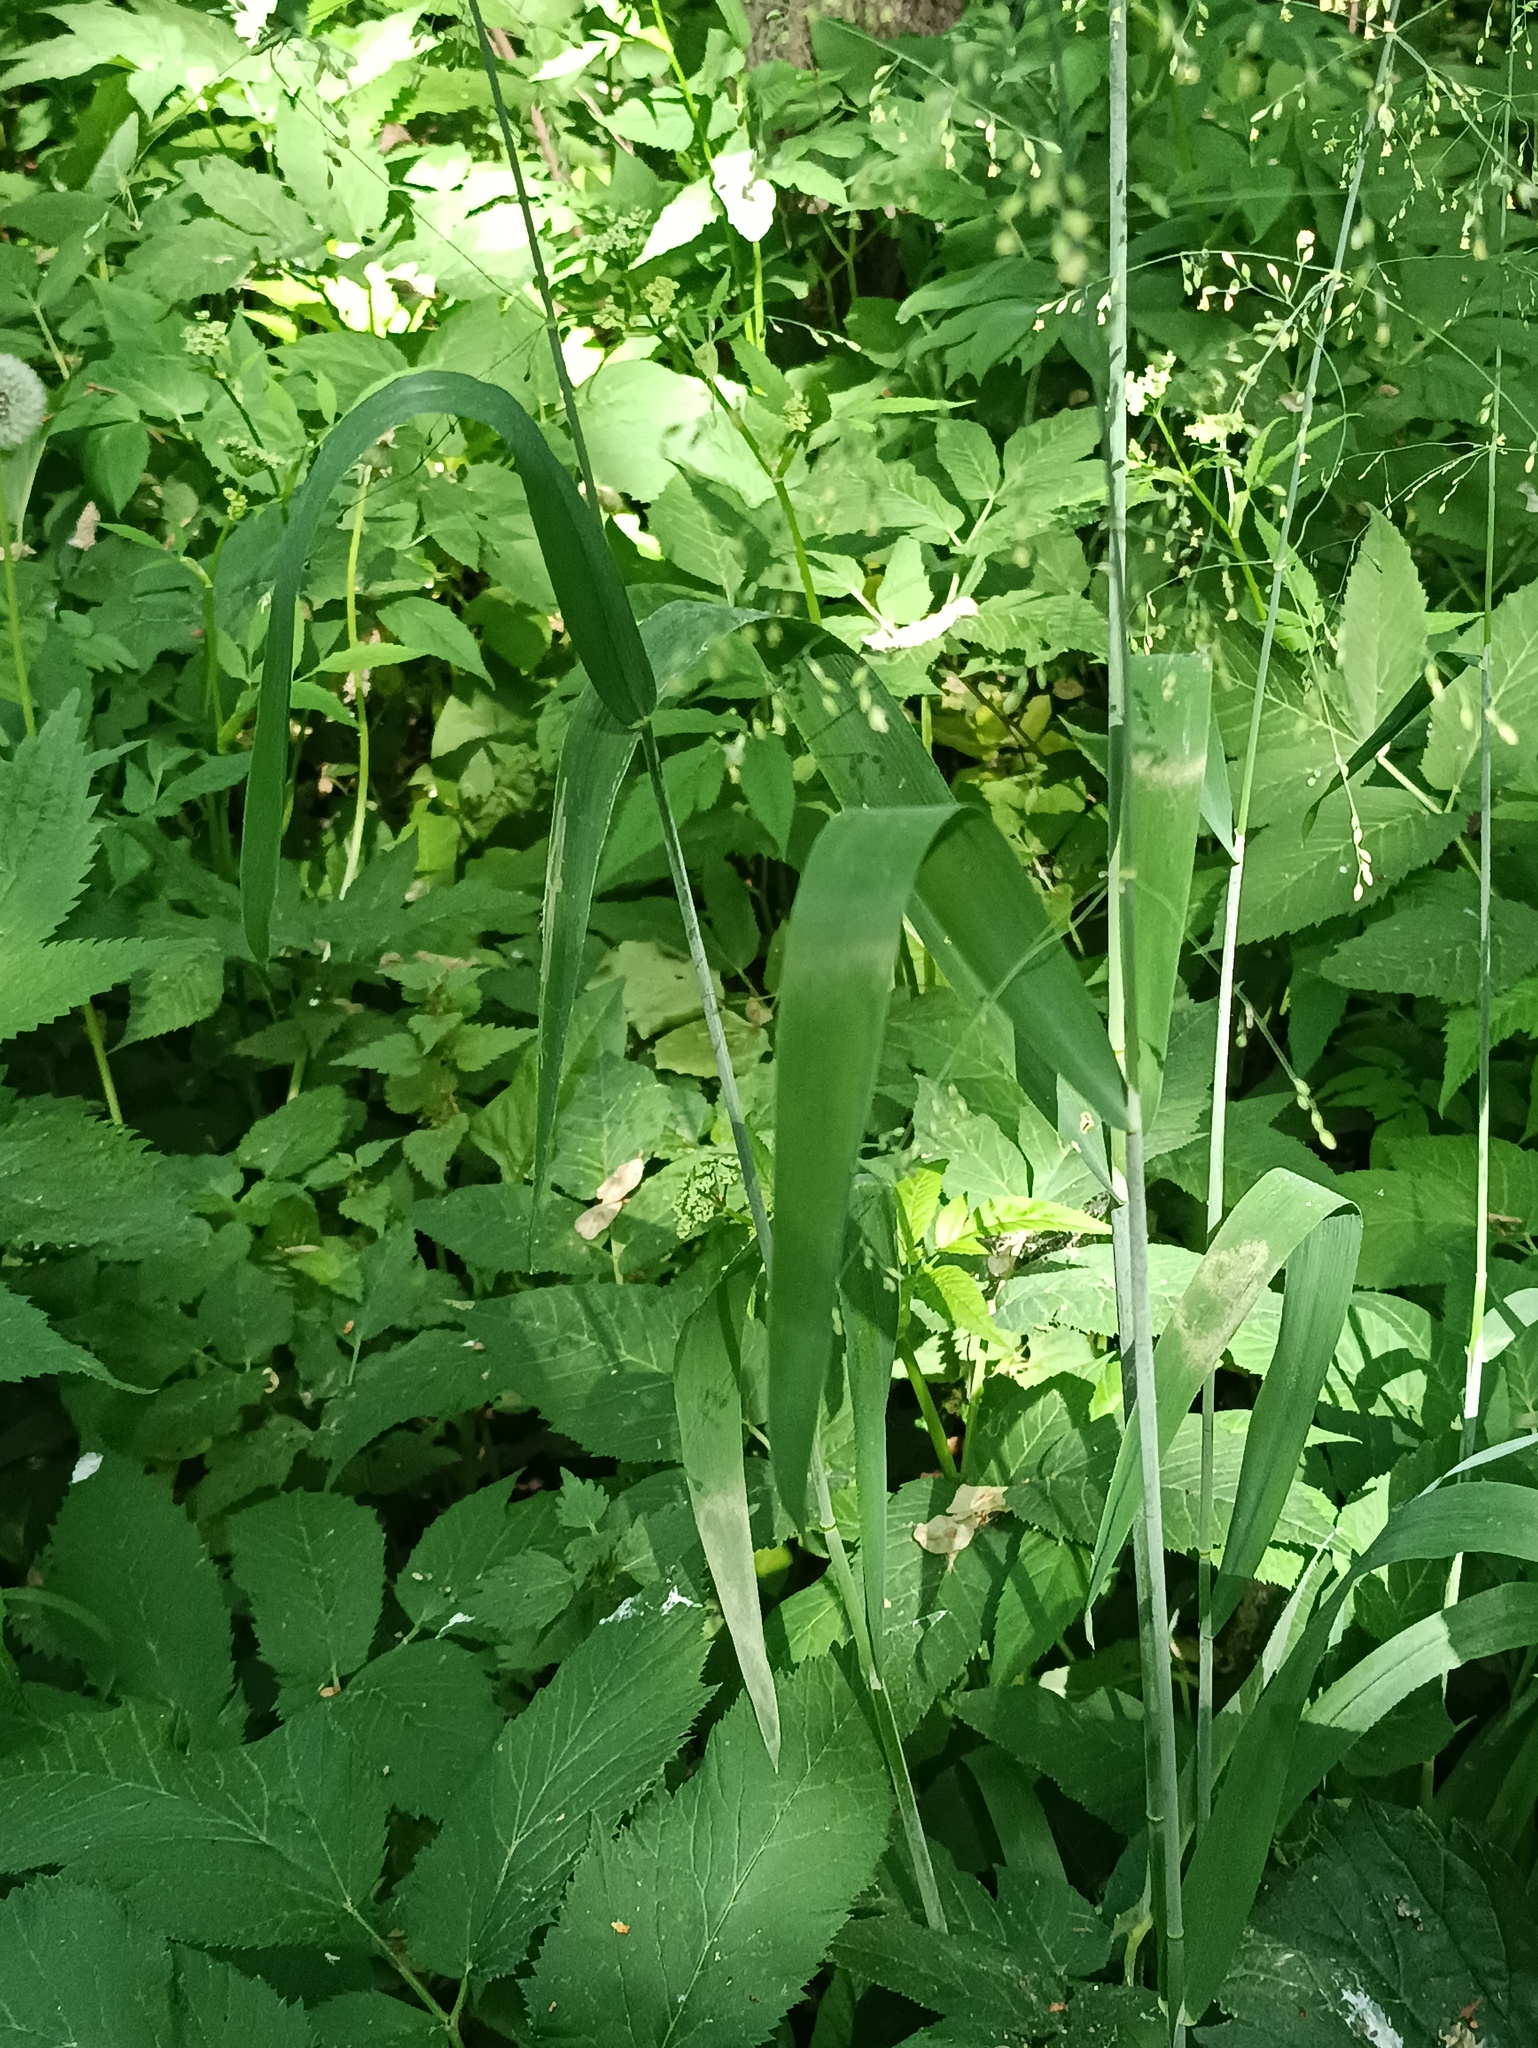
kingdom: Plantae
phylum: Tracheophyta
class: Liliopsida
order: Poales
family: Poaceae
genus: Milium
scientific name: Milium effusum
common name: Wood millet
